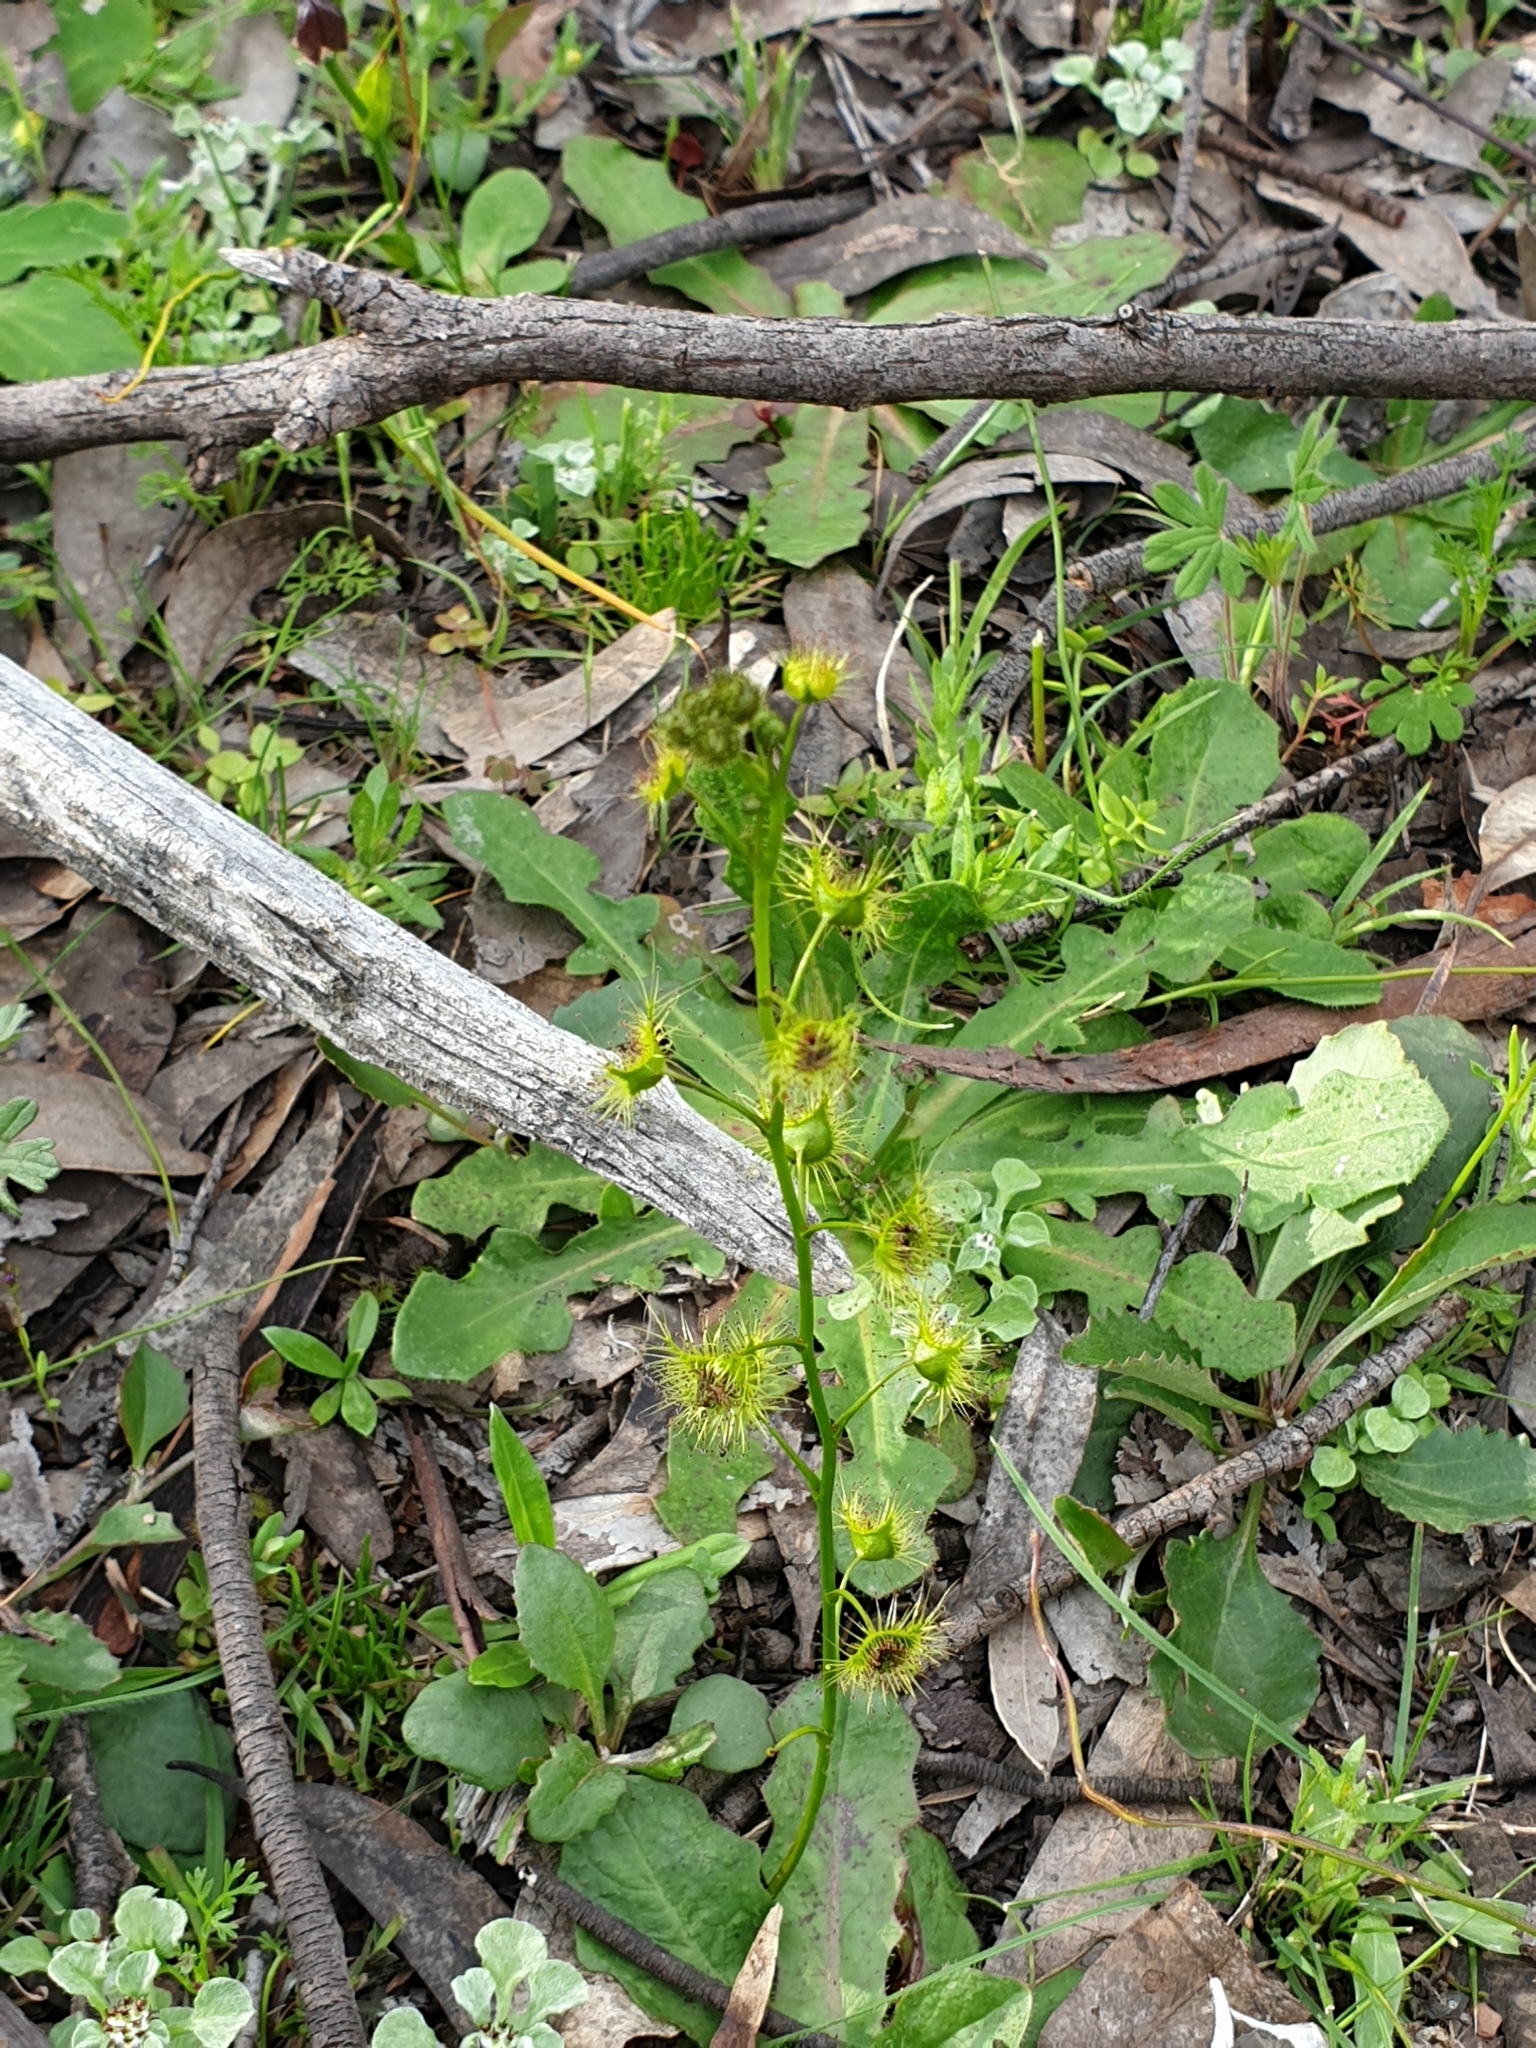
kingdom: Plantae
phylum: Tracheophyta
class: Magnoliopsida
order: Caryophyllales
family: Droseraceae
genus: Drosera
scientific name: Drosera gunniana
